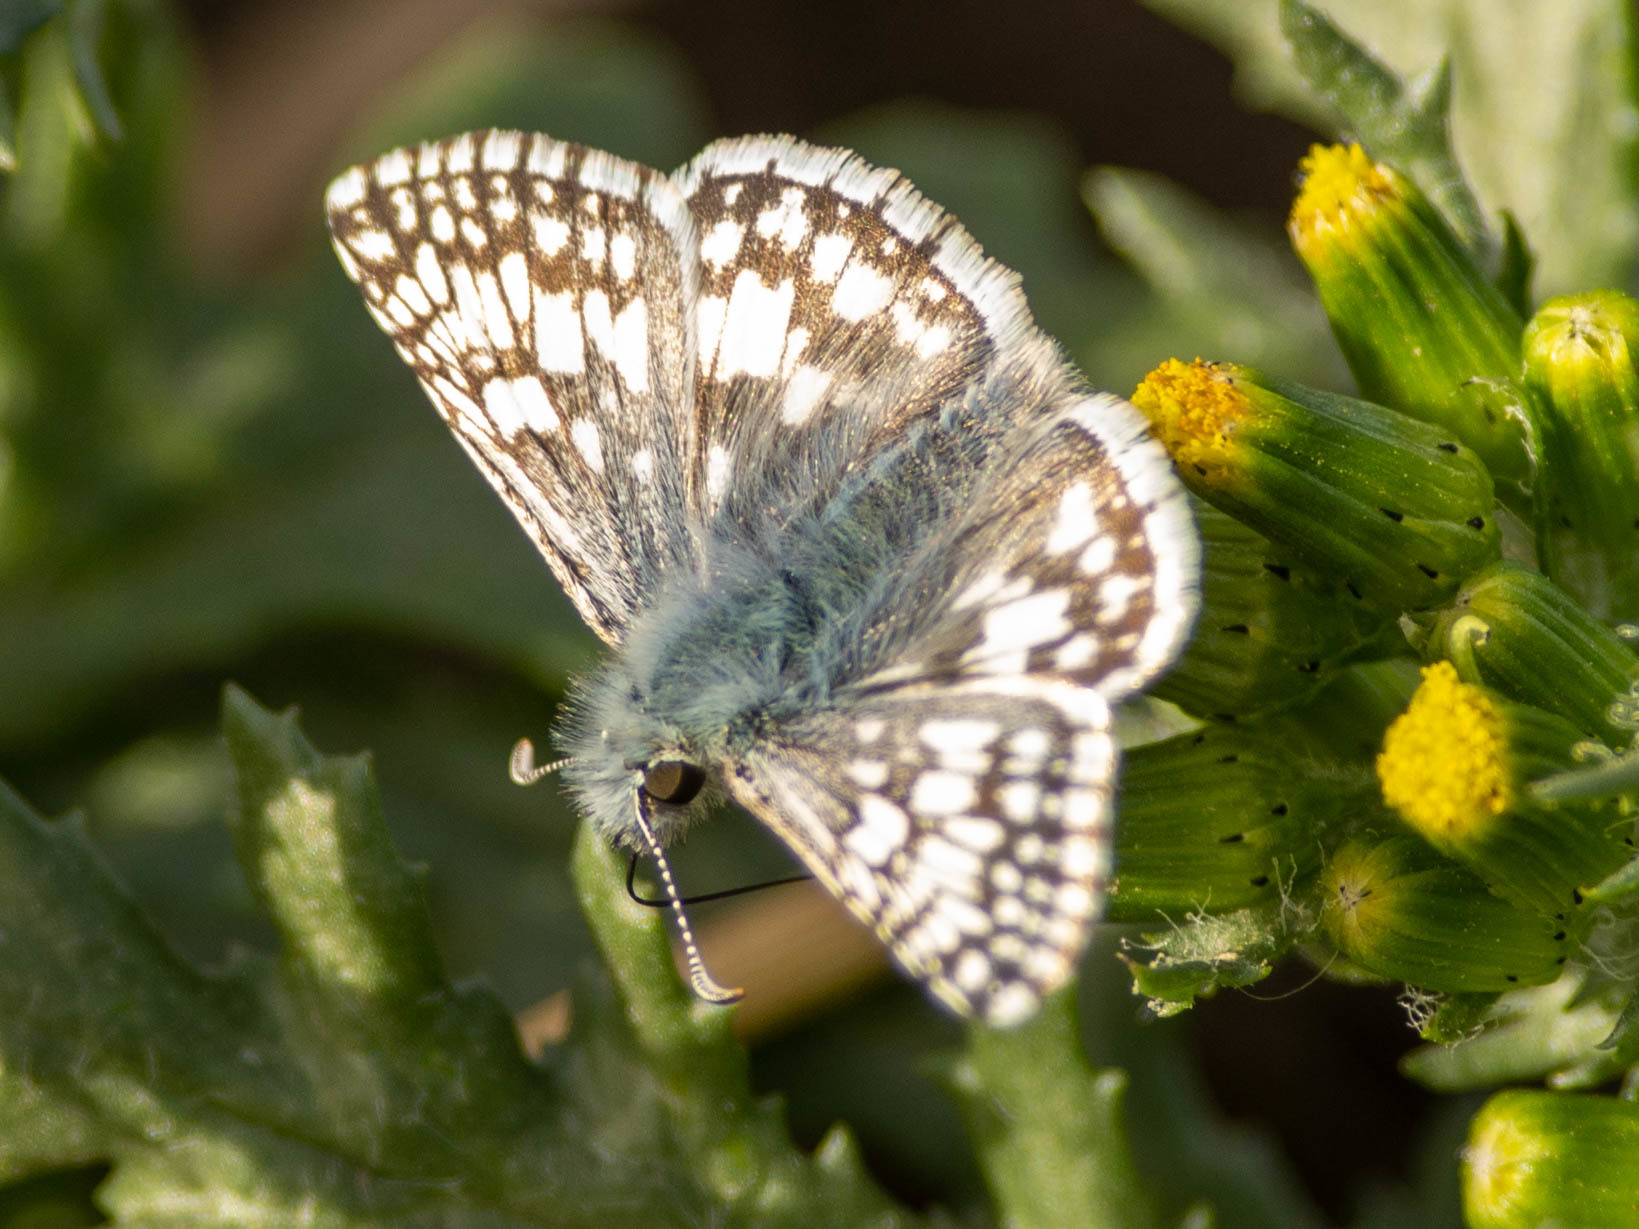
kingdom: Animalia
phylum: Arthropoda
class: Insecta
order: Lepidoptera
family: Hesperiidae
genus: Burnsius
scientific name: Burnsius communis
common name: Common checkered-skipper
